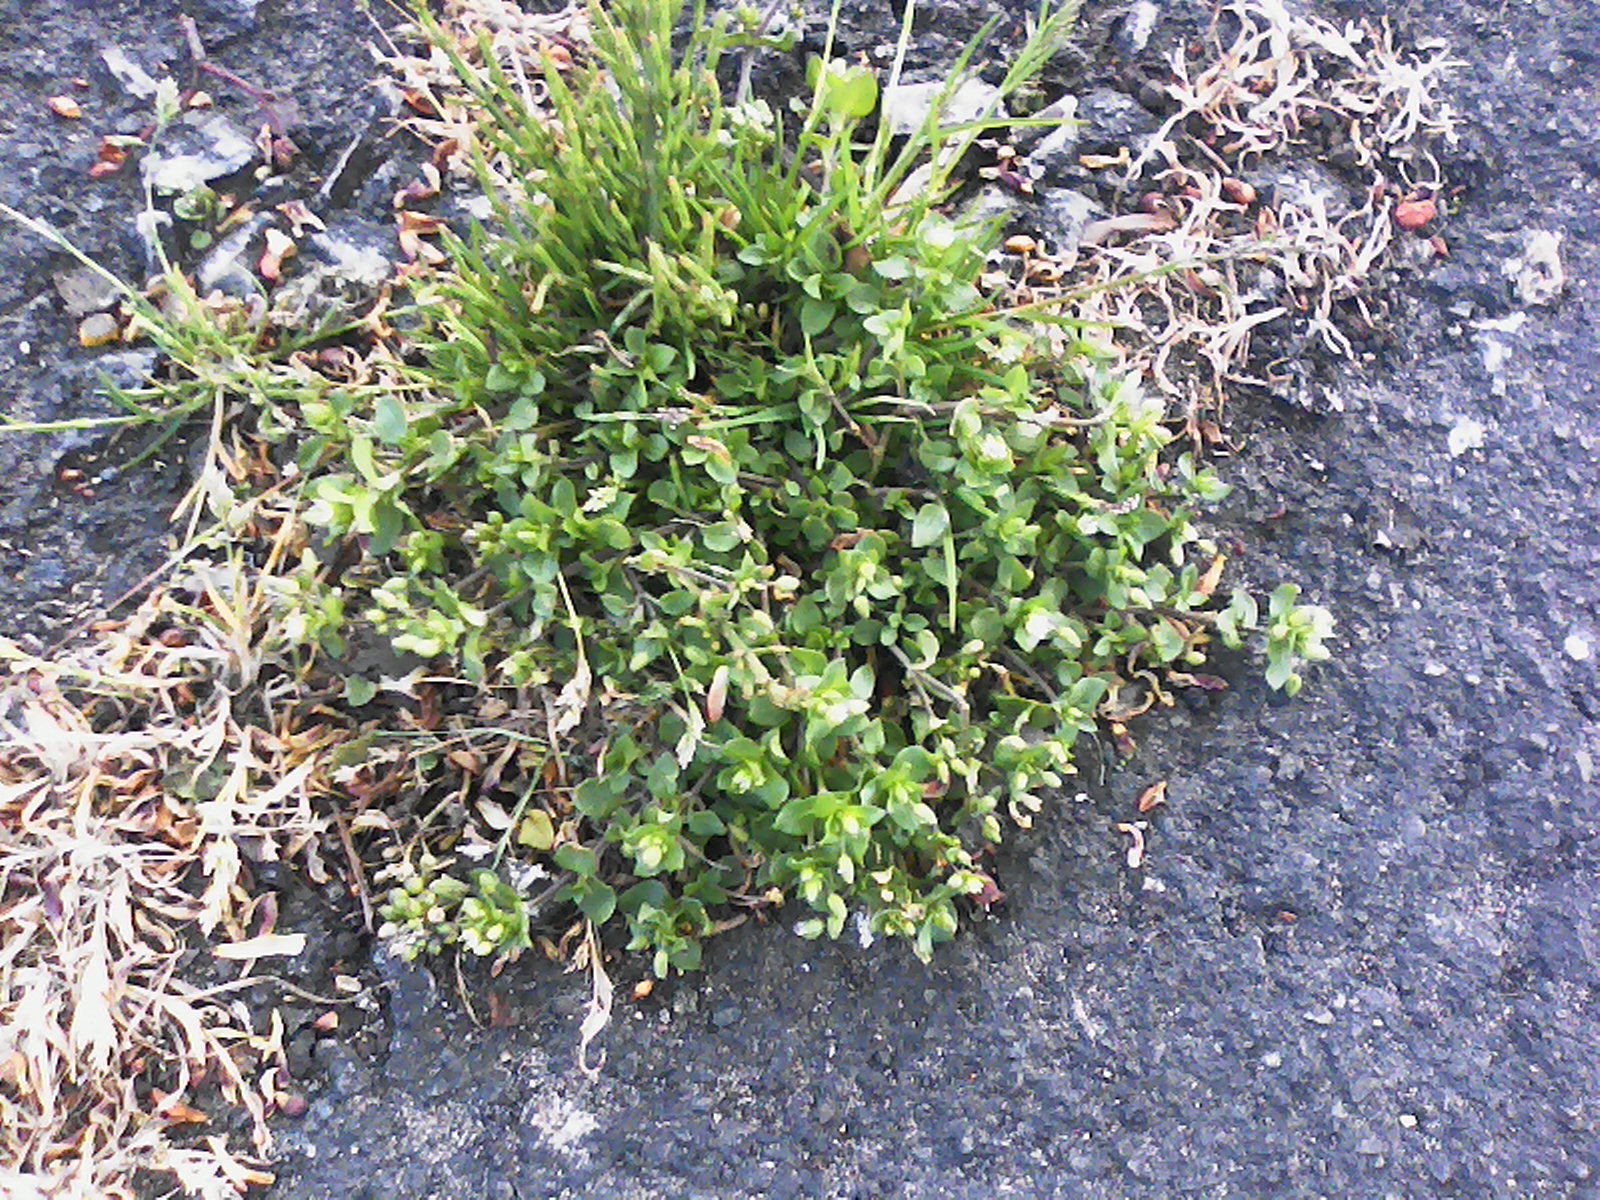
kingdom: Plantae
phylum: Tracheophyta
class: Magnoliopsida
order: Caryophyllales
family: Caryophyllaceae
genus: Stellaria
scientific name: Stellaria media
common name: Common chickweed
